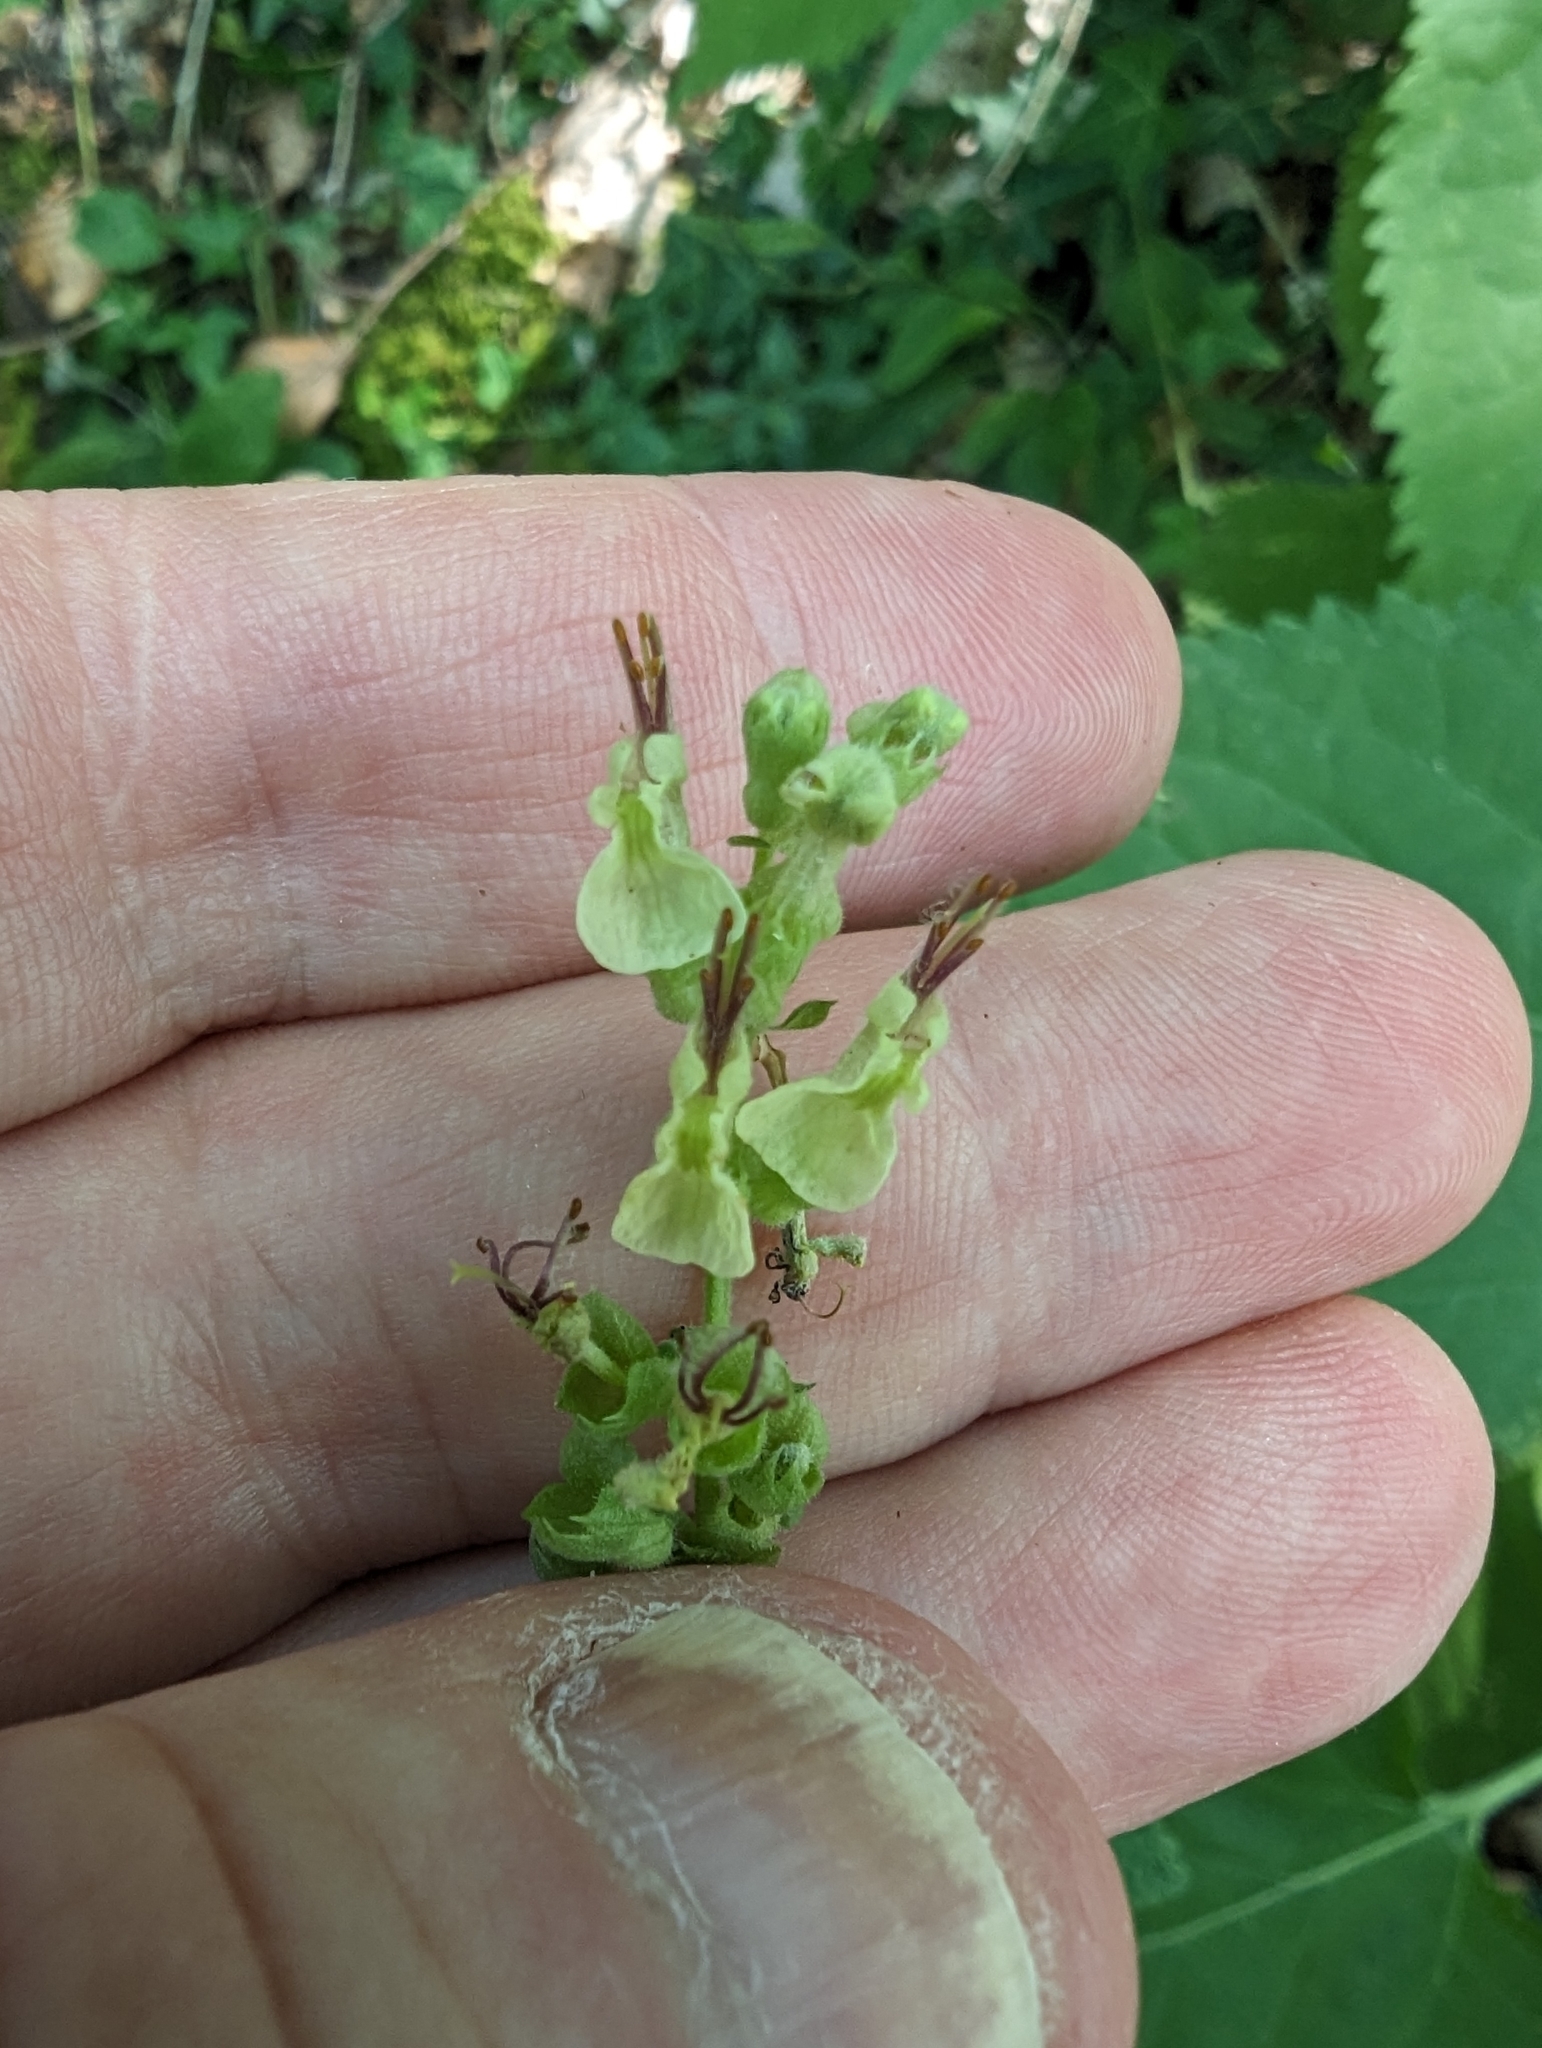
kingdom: Plantae
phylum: Tracheophyta
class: Magnoliopsida
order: Lamiales
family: Lamiaceae
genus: Teucrium
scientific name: Teucrium scorodonia
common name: Woodland germander
